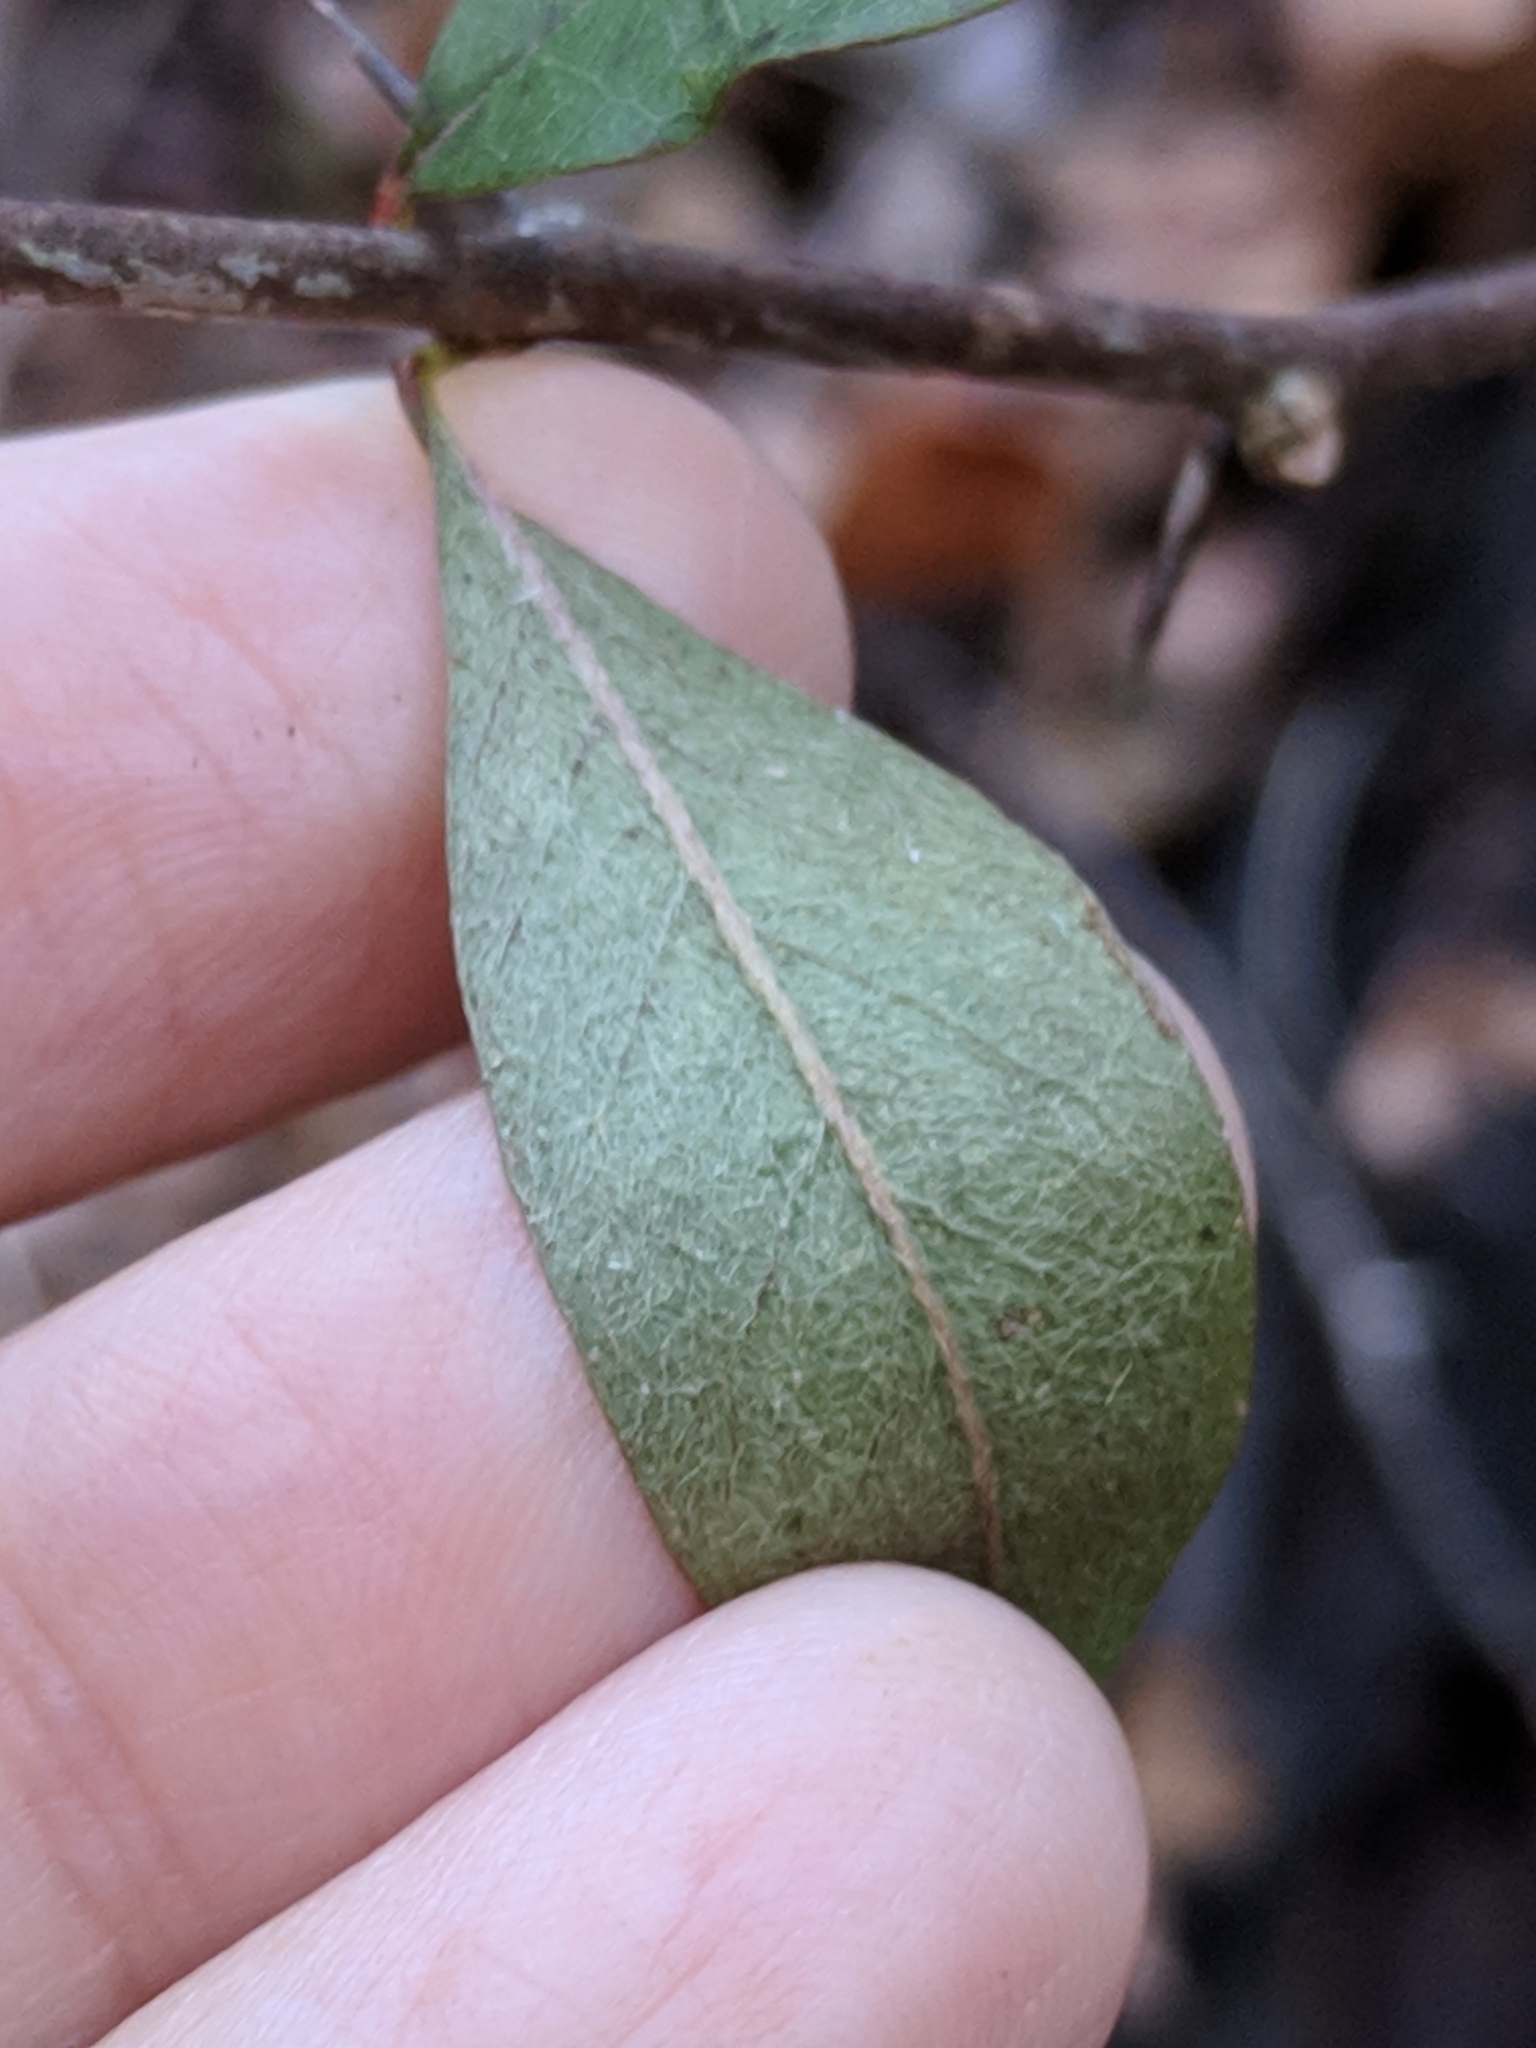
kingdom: Plantae
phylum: Tracheophyta
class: Magnoliopsida
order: Ericales
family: Sapotaceae
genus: Sideroxylon
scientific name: Sideroxylon lanuginosum
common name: Chittamwood
